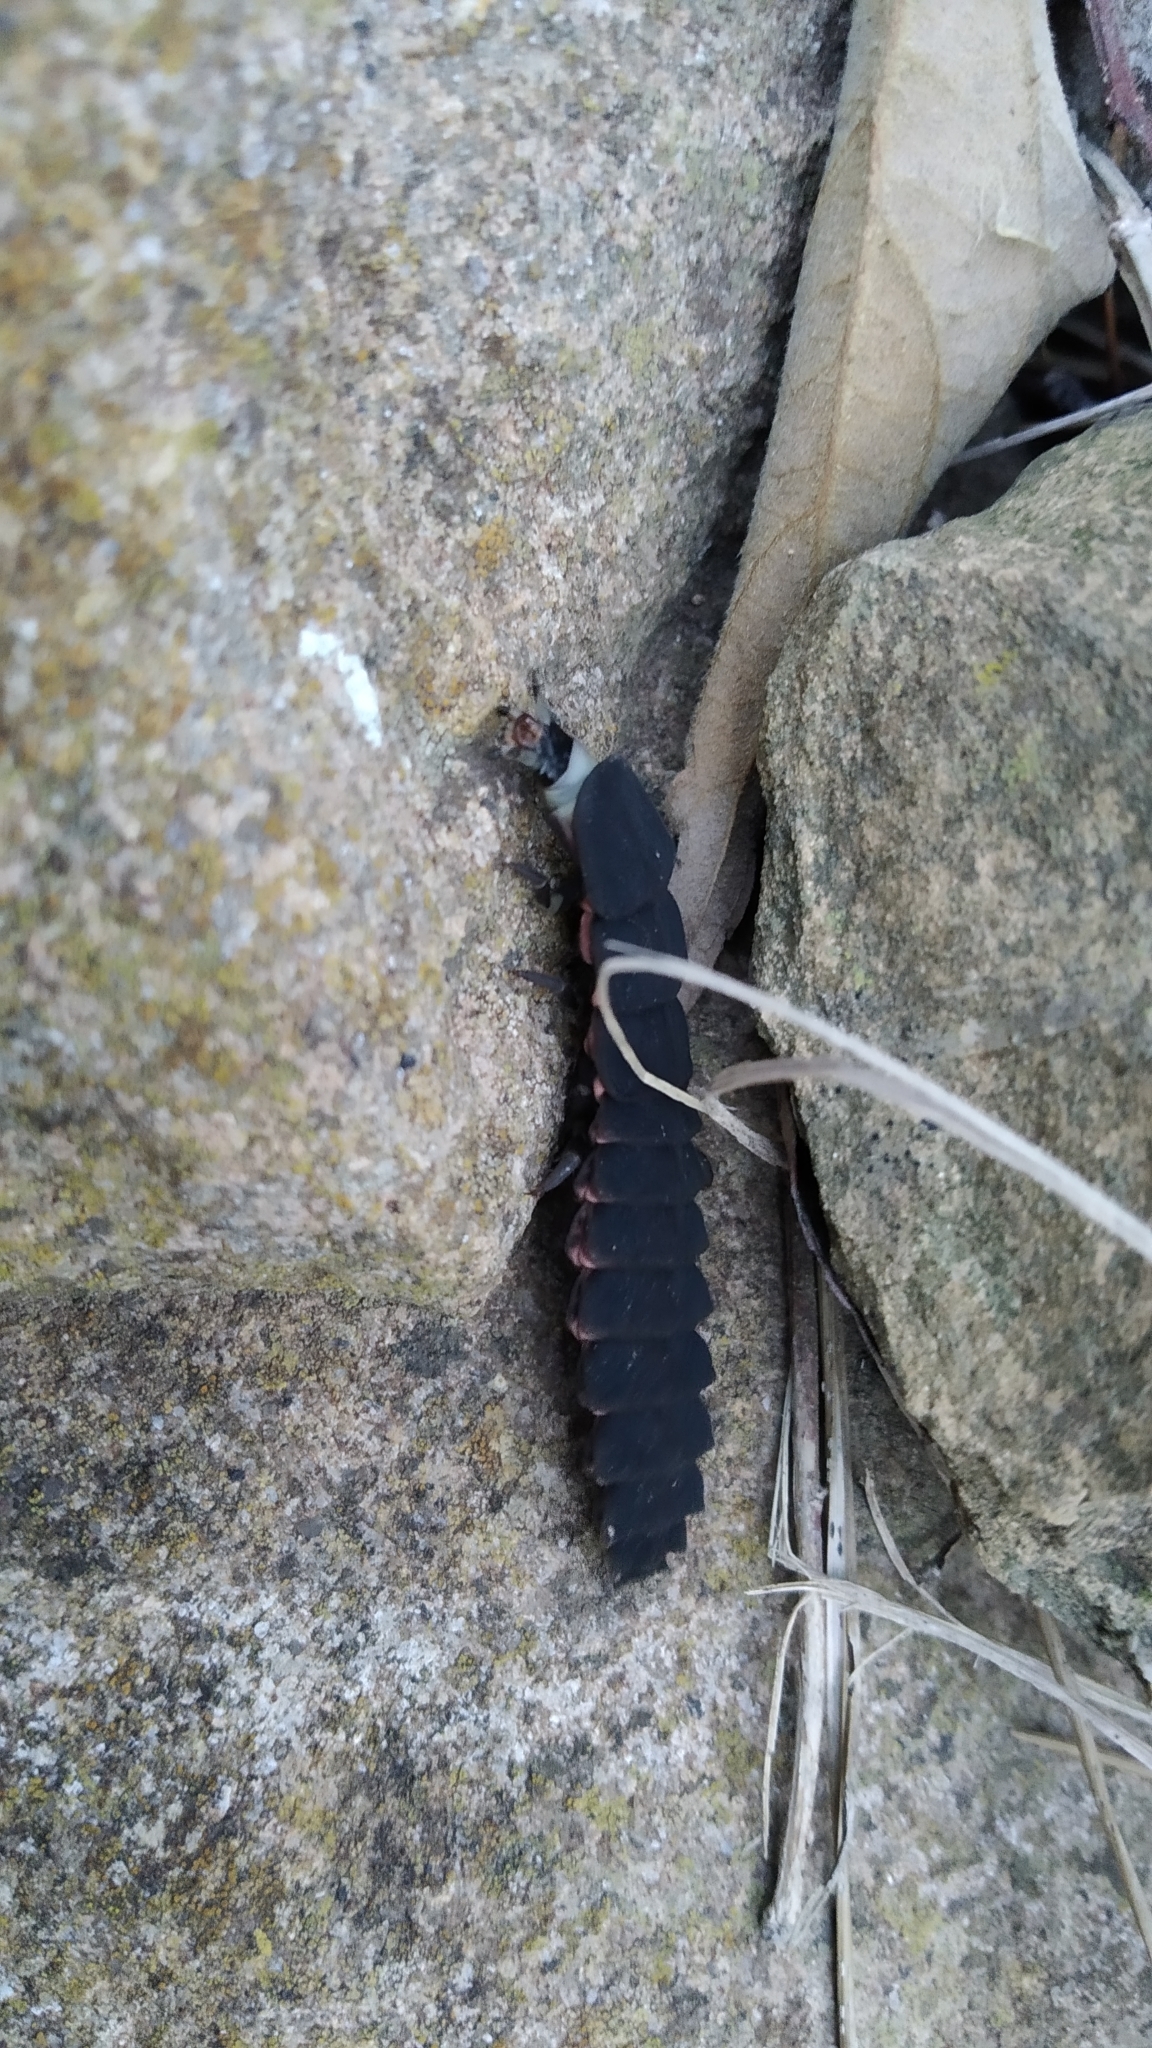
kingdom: Animalia
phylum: Arthropoda
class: Insecta
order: Coleoptera
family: Lampyridae
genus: Nyctophila
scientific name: Nyctophila reichii
